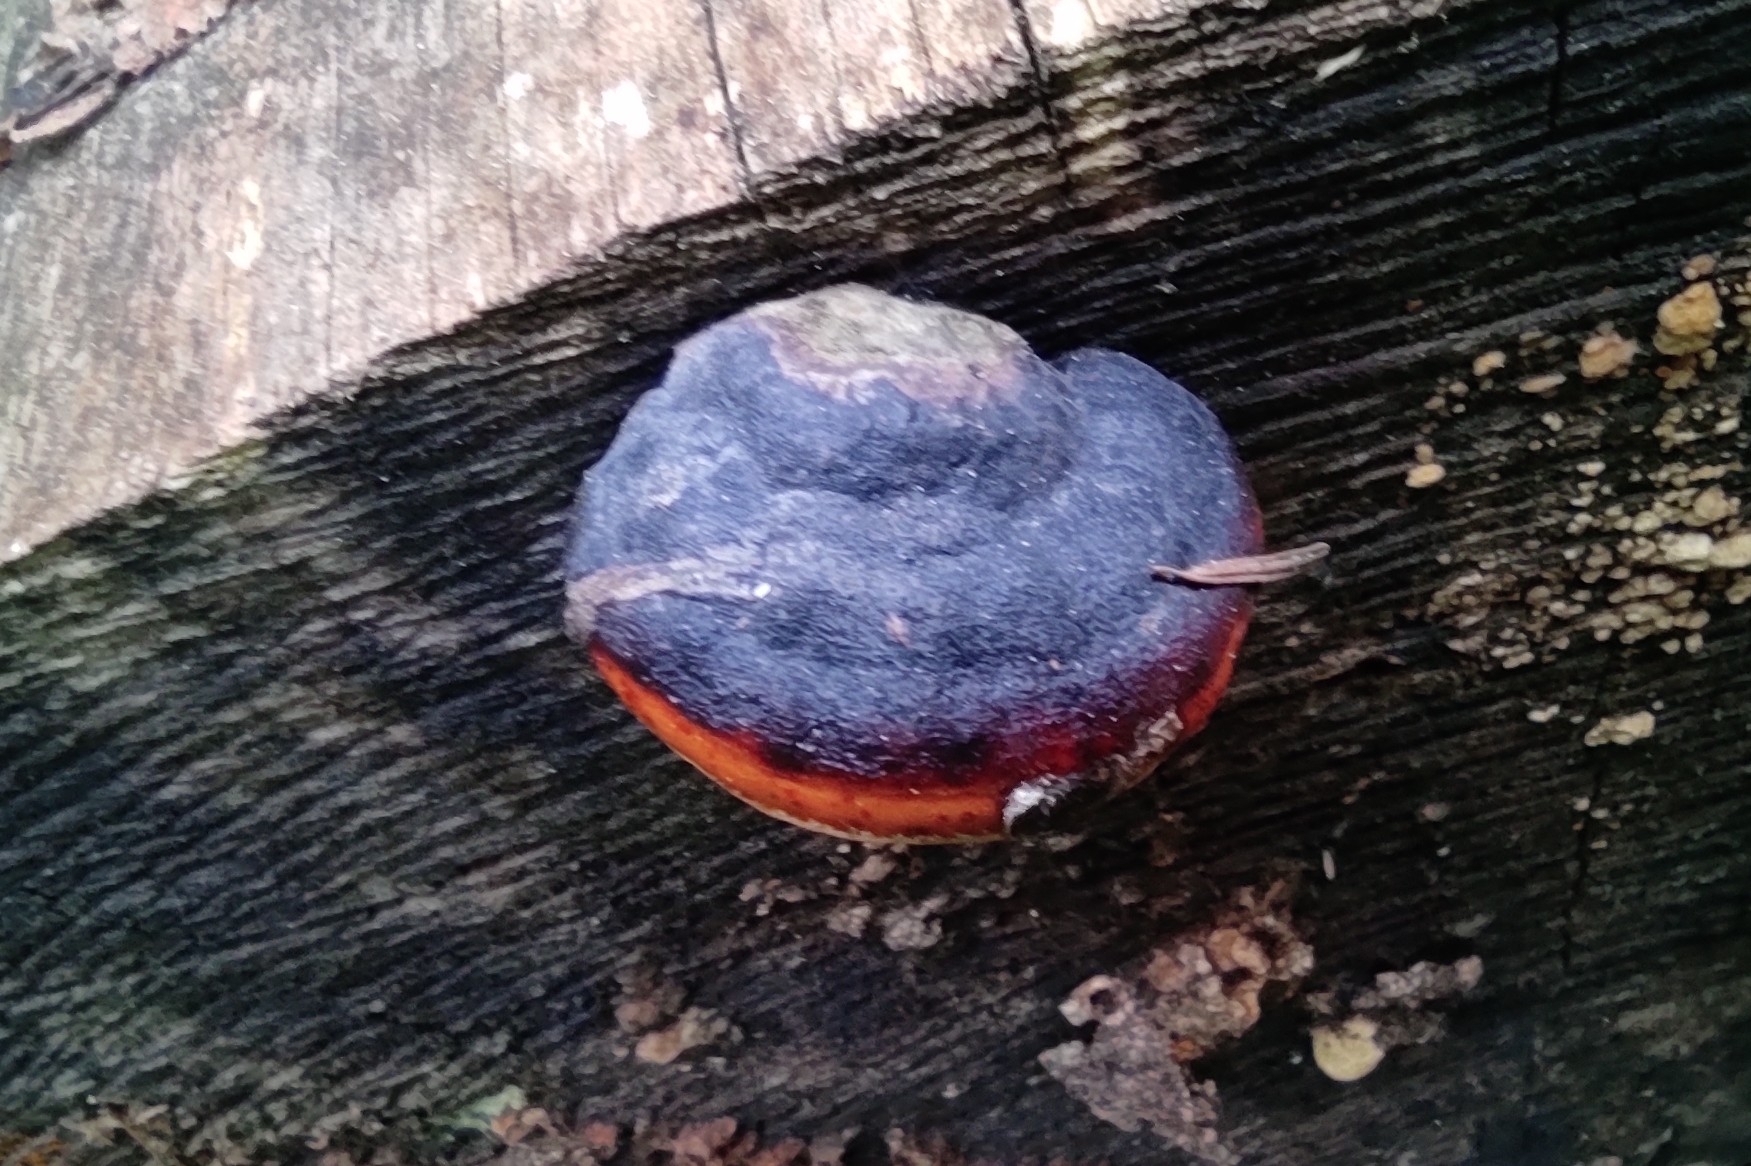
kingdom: Fungi
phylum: Basidiomycota
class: Agaricomycetes
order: Polyporales
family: Fomitopsidaceae
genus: Fomitopsis
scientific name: Fomitopsis pinicola
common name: Red-belted bracket
